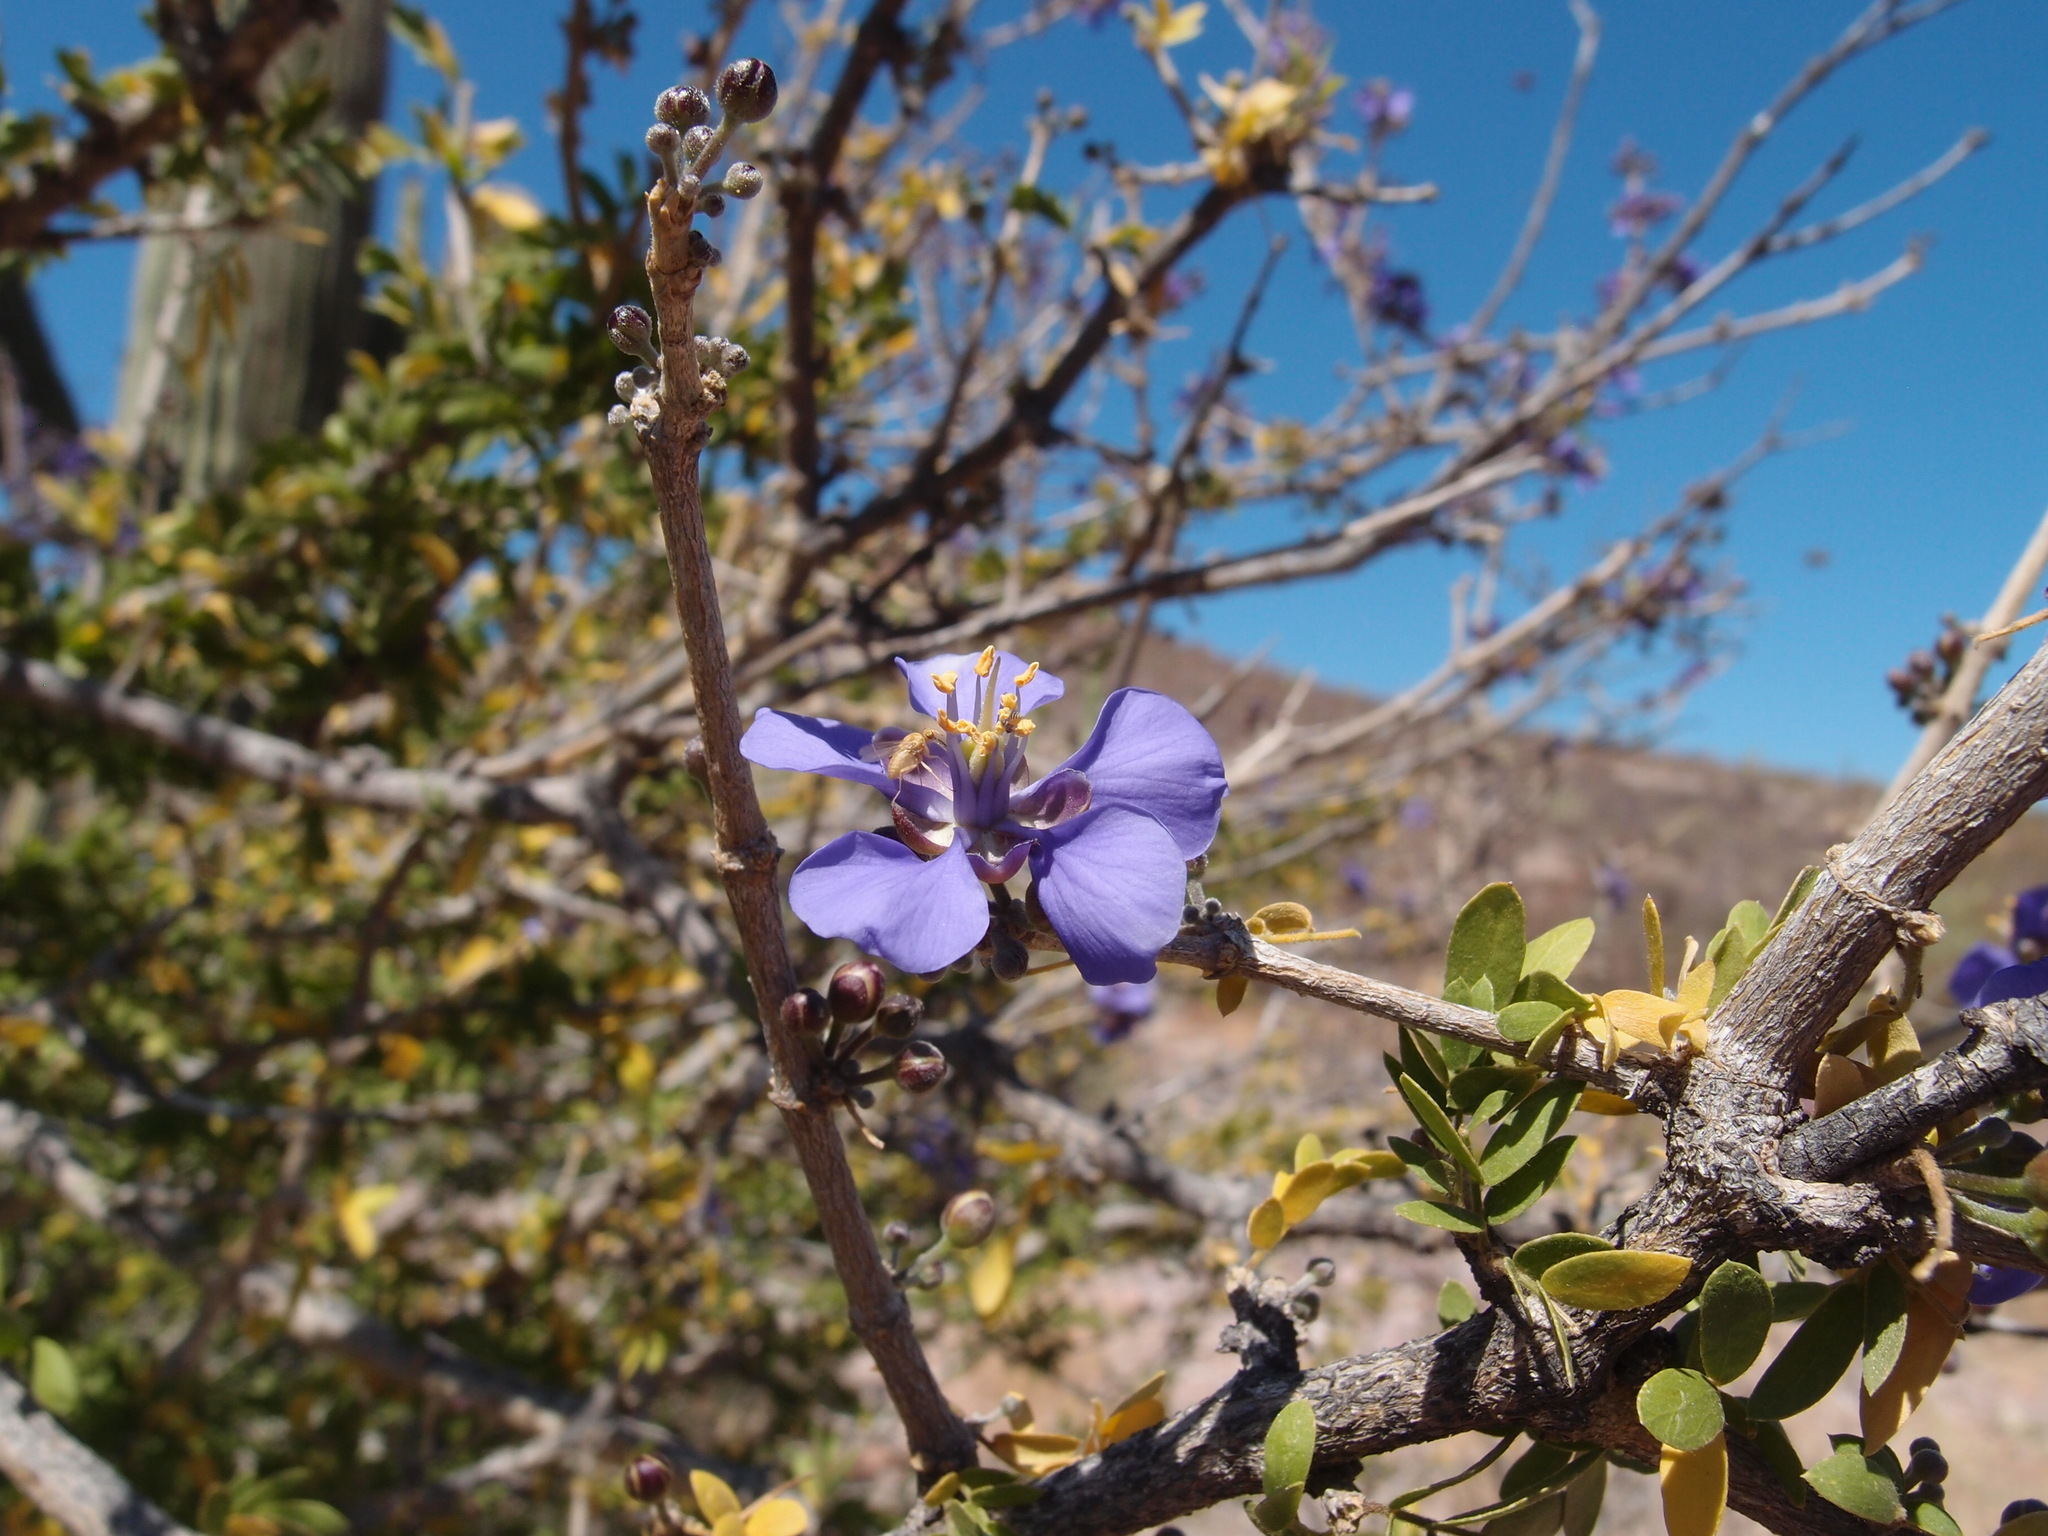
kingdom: Plantae
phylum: Tracheophyta
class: Magnoliopsida
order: Zygophyllales
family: Zygophyllaceae
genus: Guaiacum
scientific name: Guaiacum coulteri
